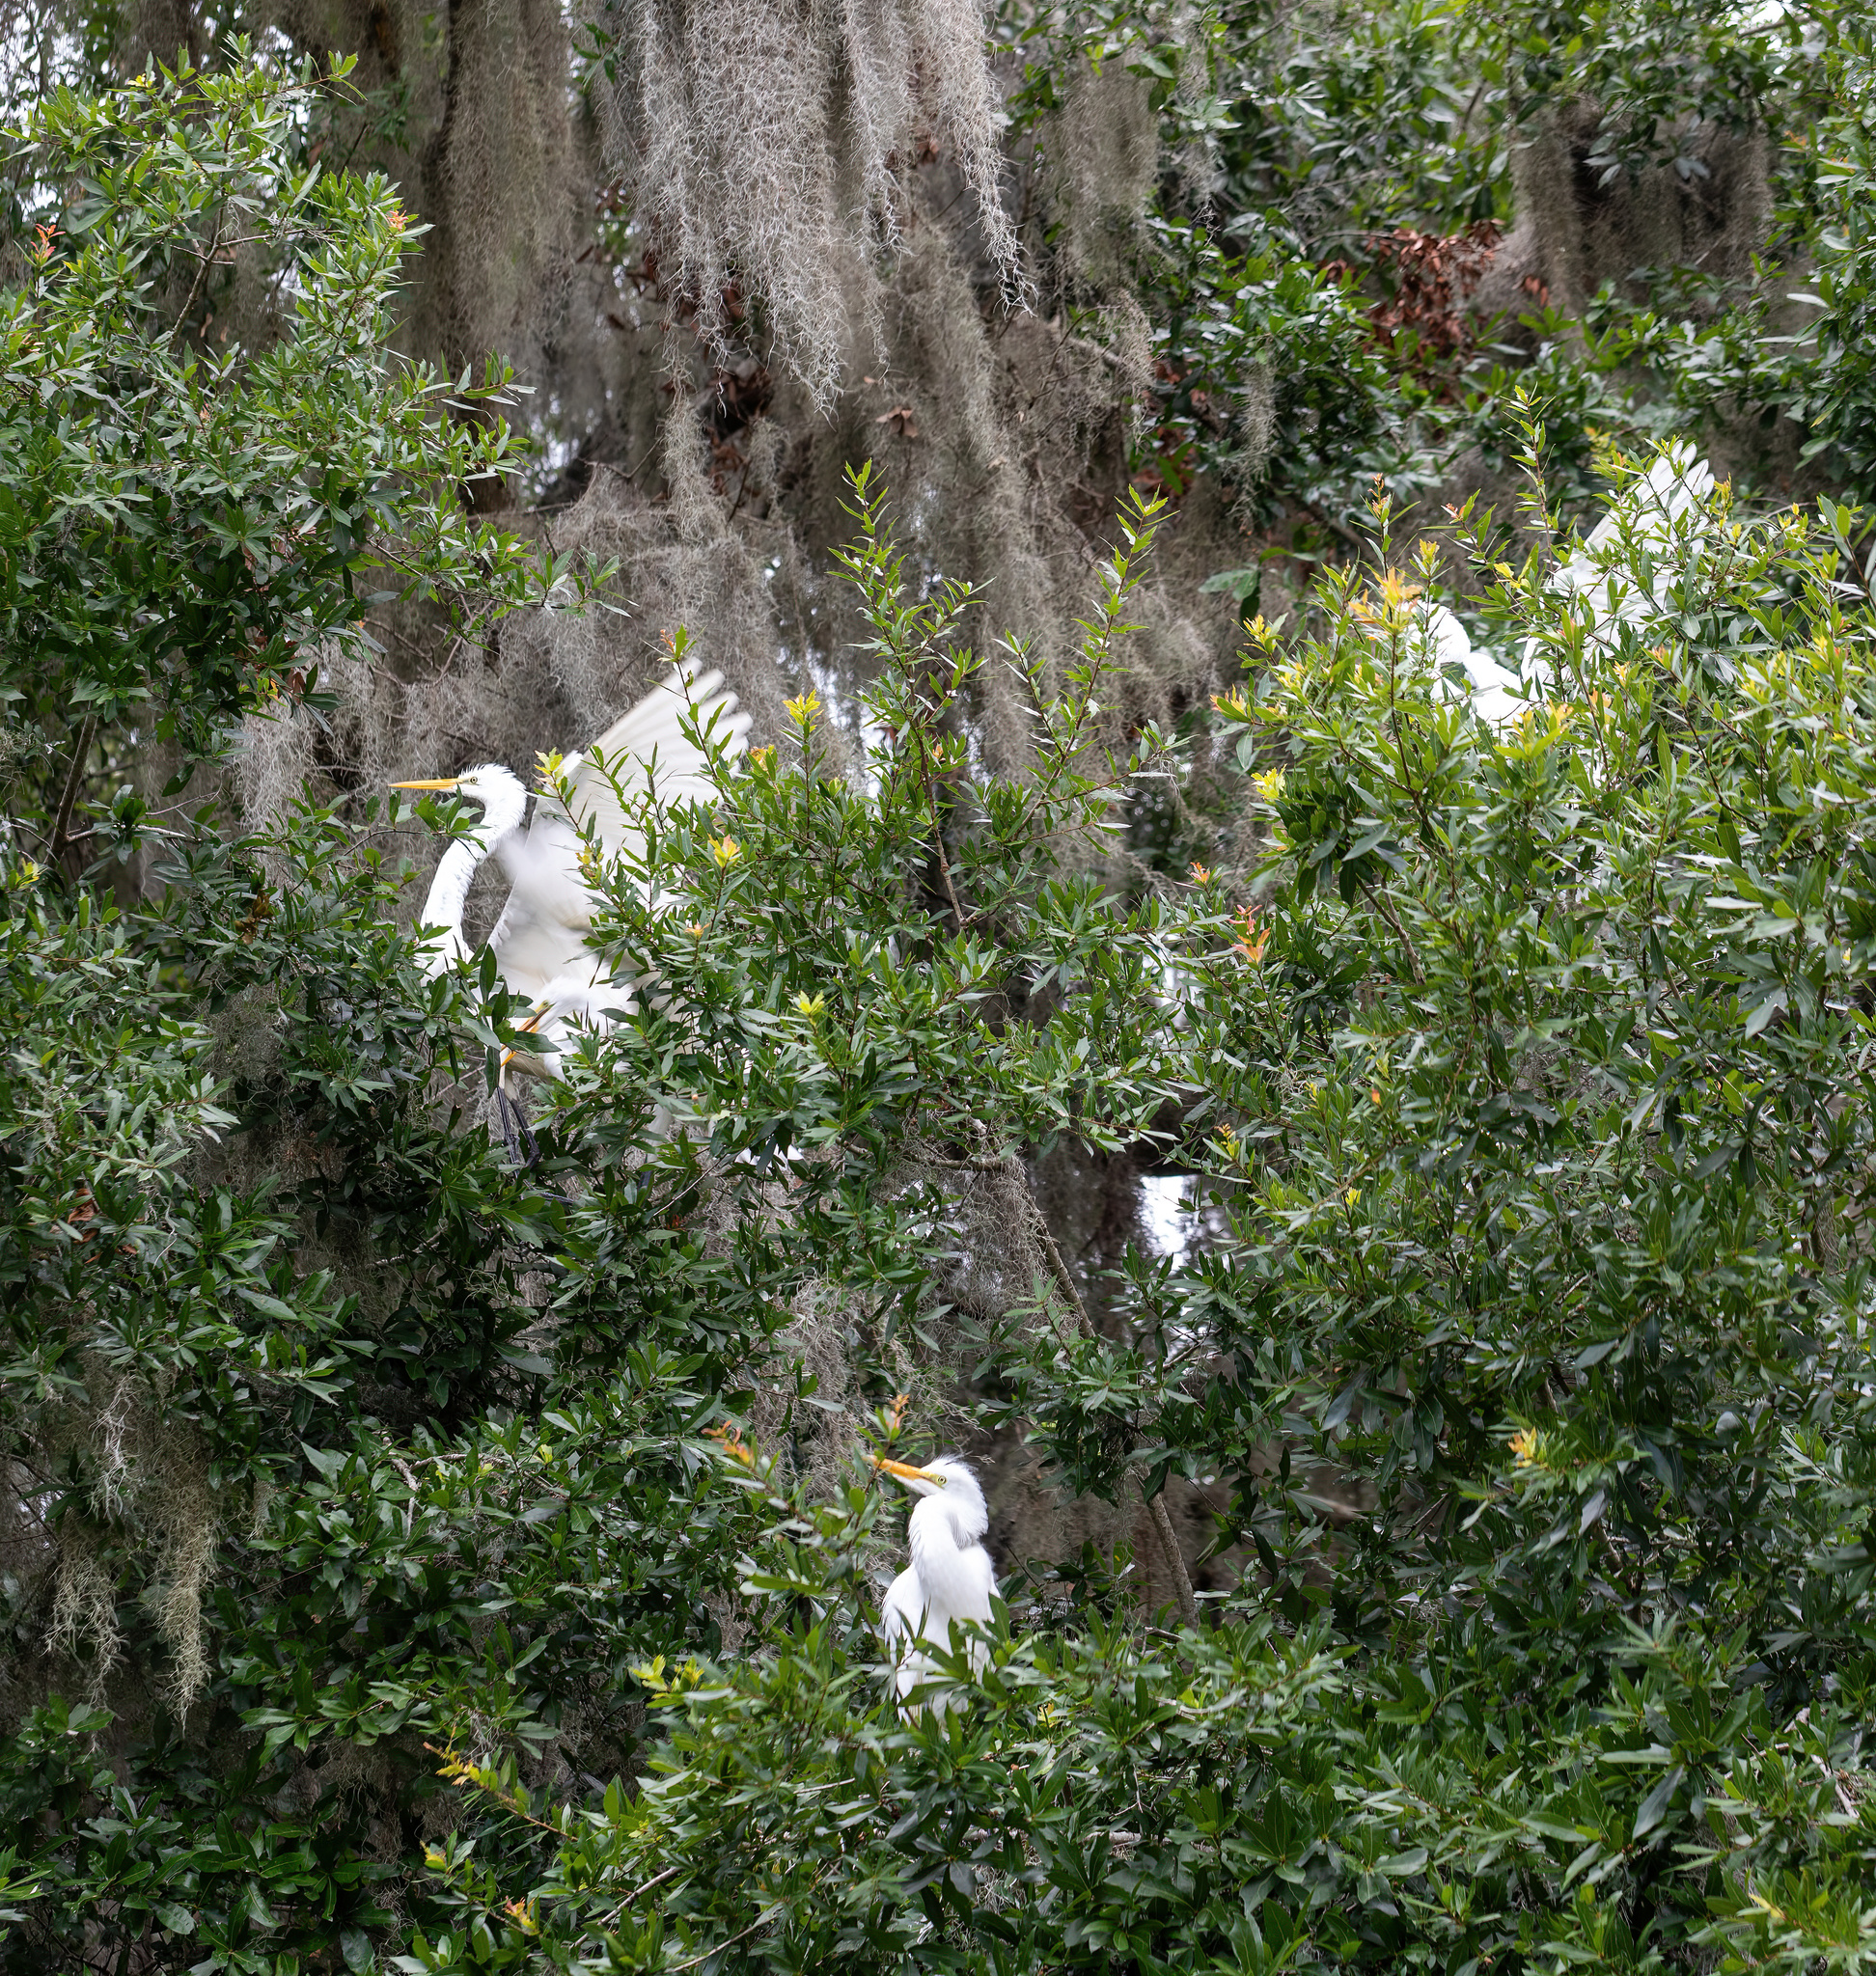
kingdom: Animalia
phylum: Chordata
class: Aves
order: Pelecaniformes
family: Ardeidae
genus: Ardea
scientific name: Ardea alba
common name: Great egret
